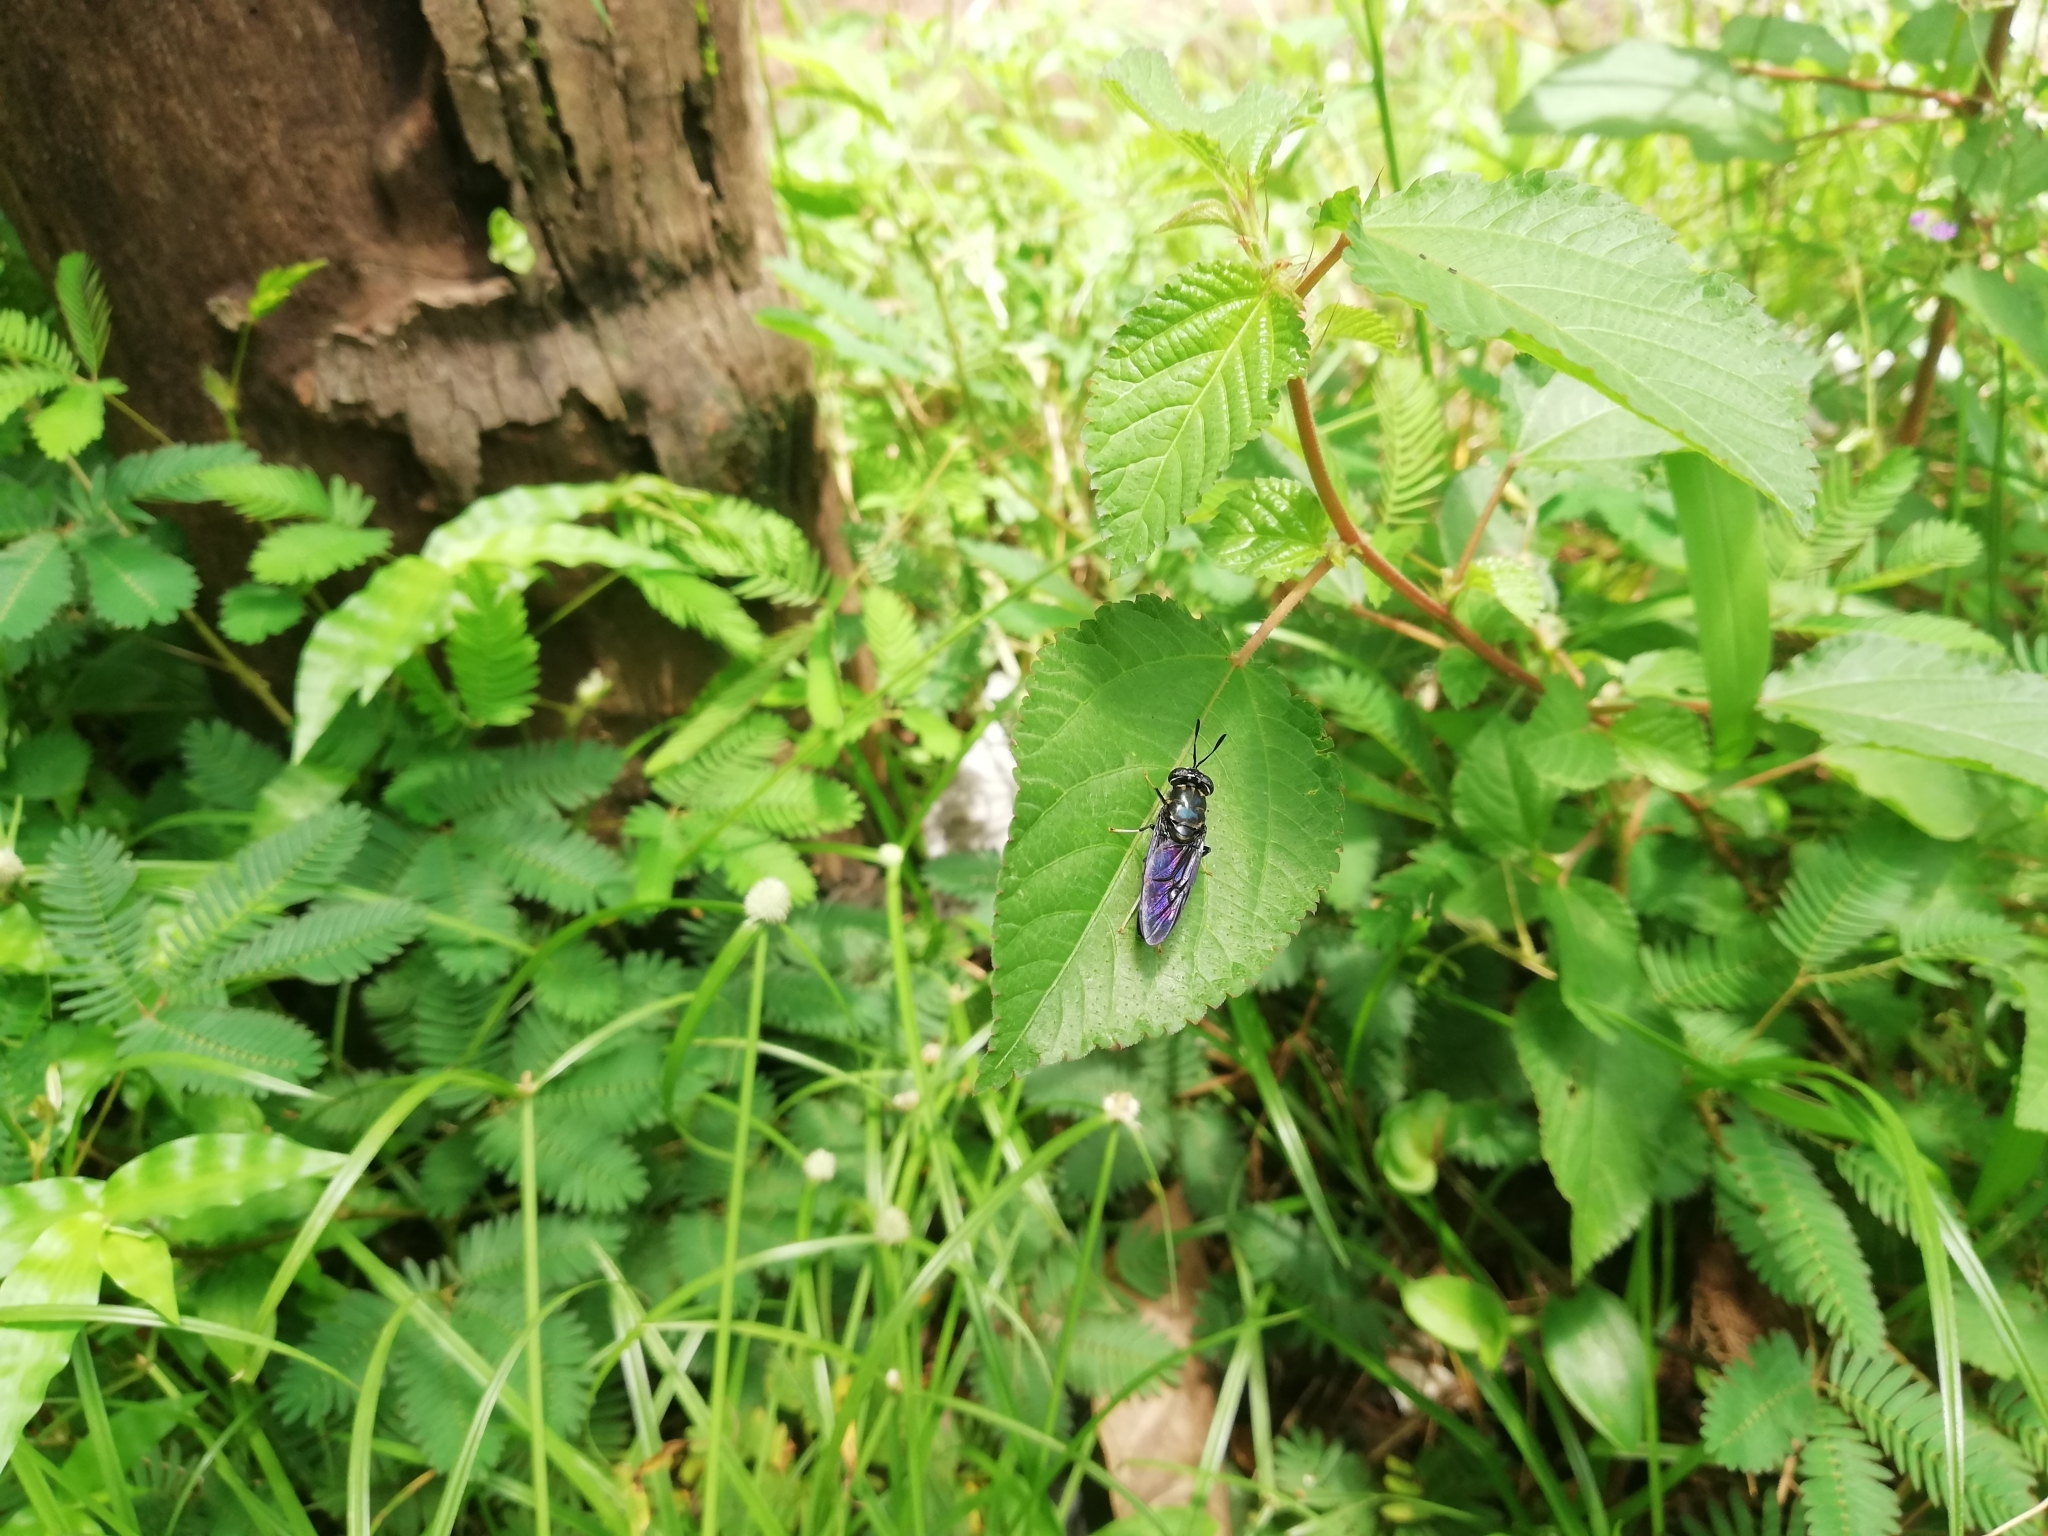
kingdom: Animalia
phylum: Arthropoda
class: Insecta
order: Diptera
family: Stratiomyidae
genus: Hermetia
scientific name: Hermetia illucens
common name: Black soldier fly
